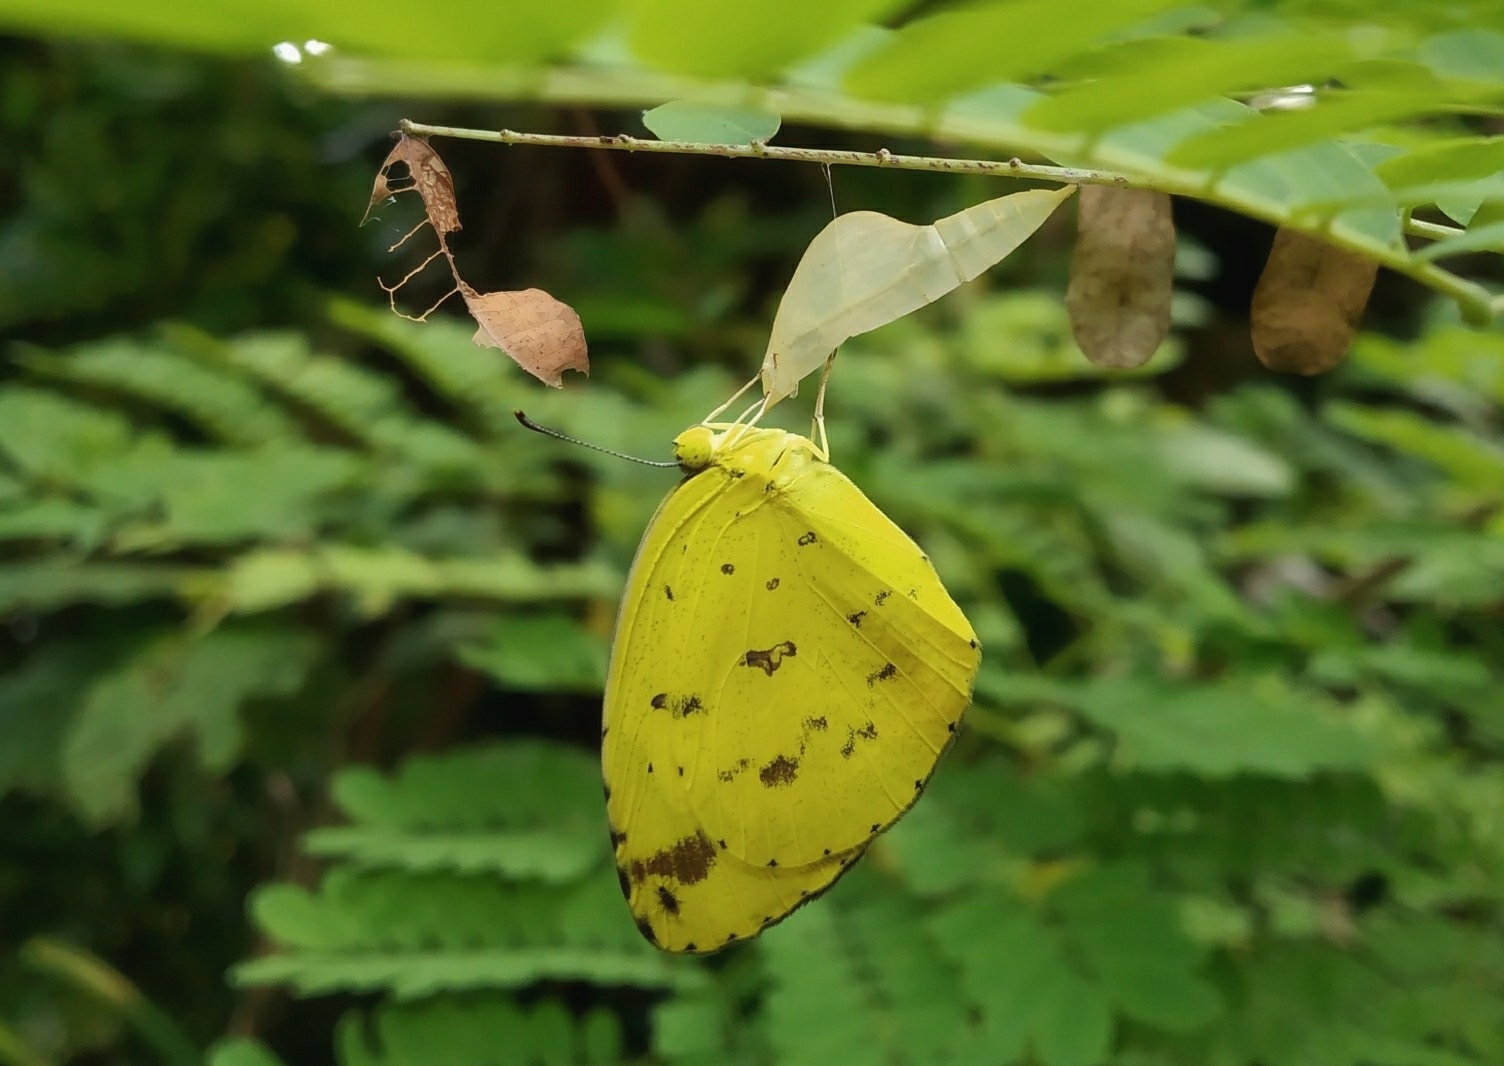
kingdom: Animalia
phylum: Arthropoda
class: Insecta
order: Lepidoptera
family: Pieridae
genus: Eurema
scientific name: Eurema hecabe
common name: Pale grass yellow
